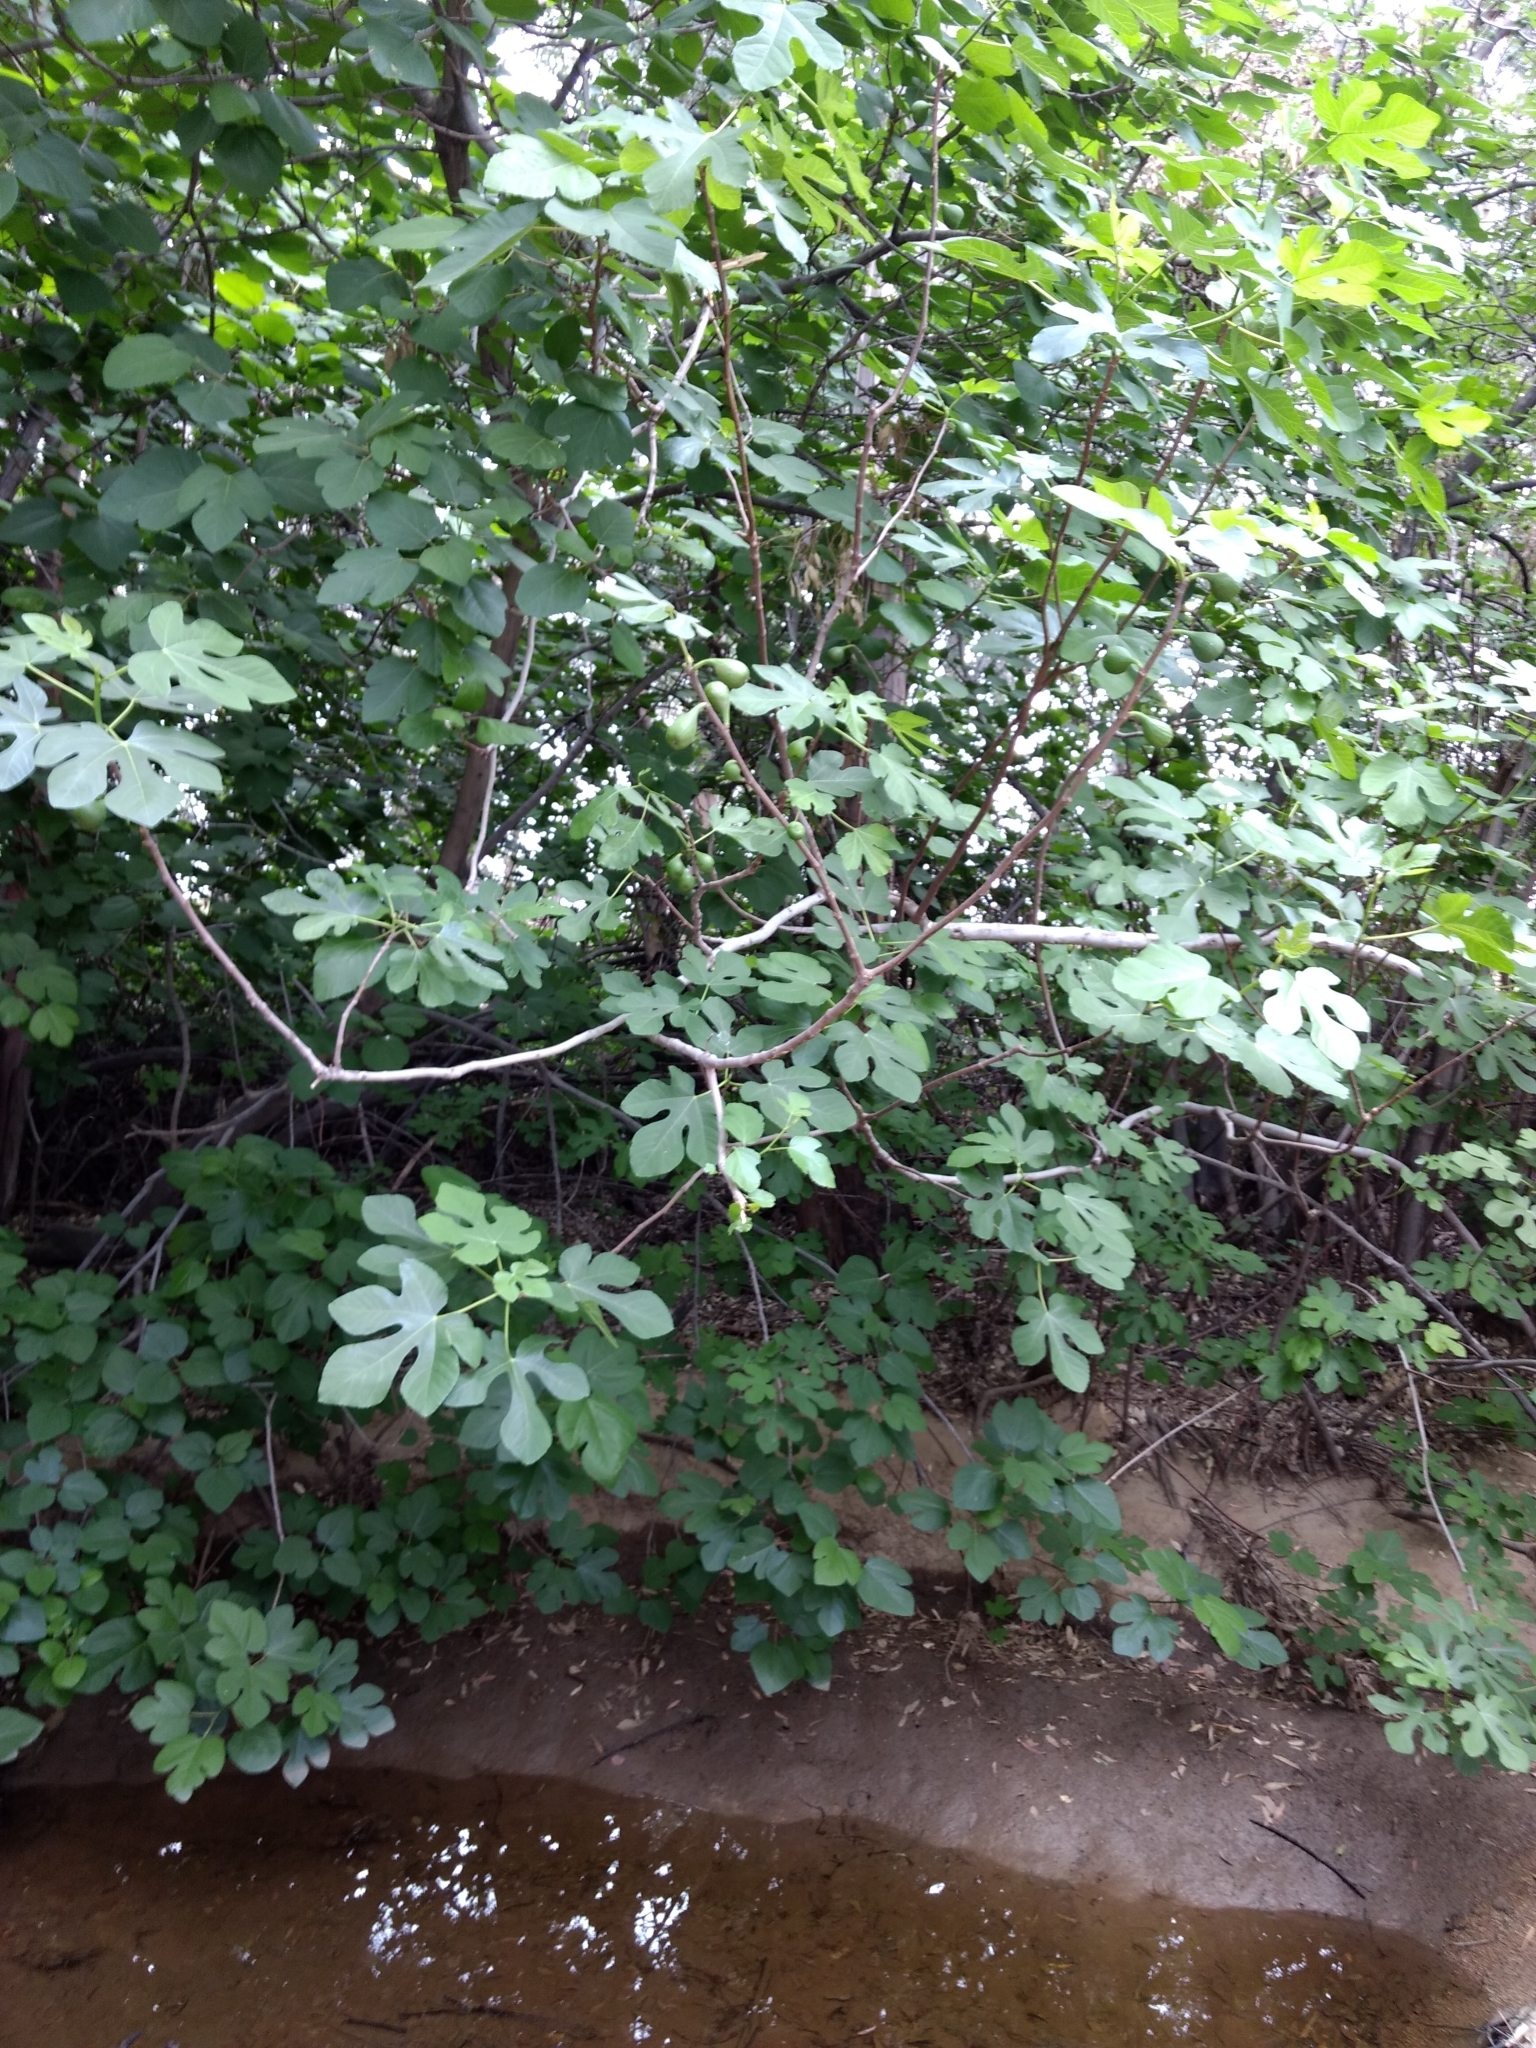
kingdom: Plantae
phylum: Tracheophyta
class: Magnoliopsida
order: Rosales
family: Moraceae
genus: Ficus
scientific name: Ficus carica
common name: Fig
